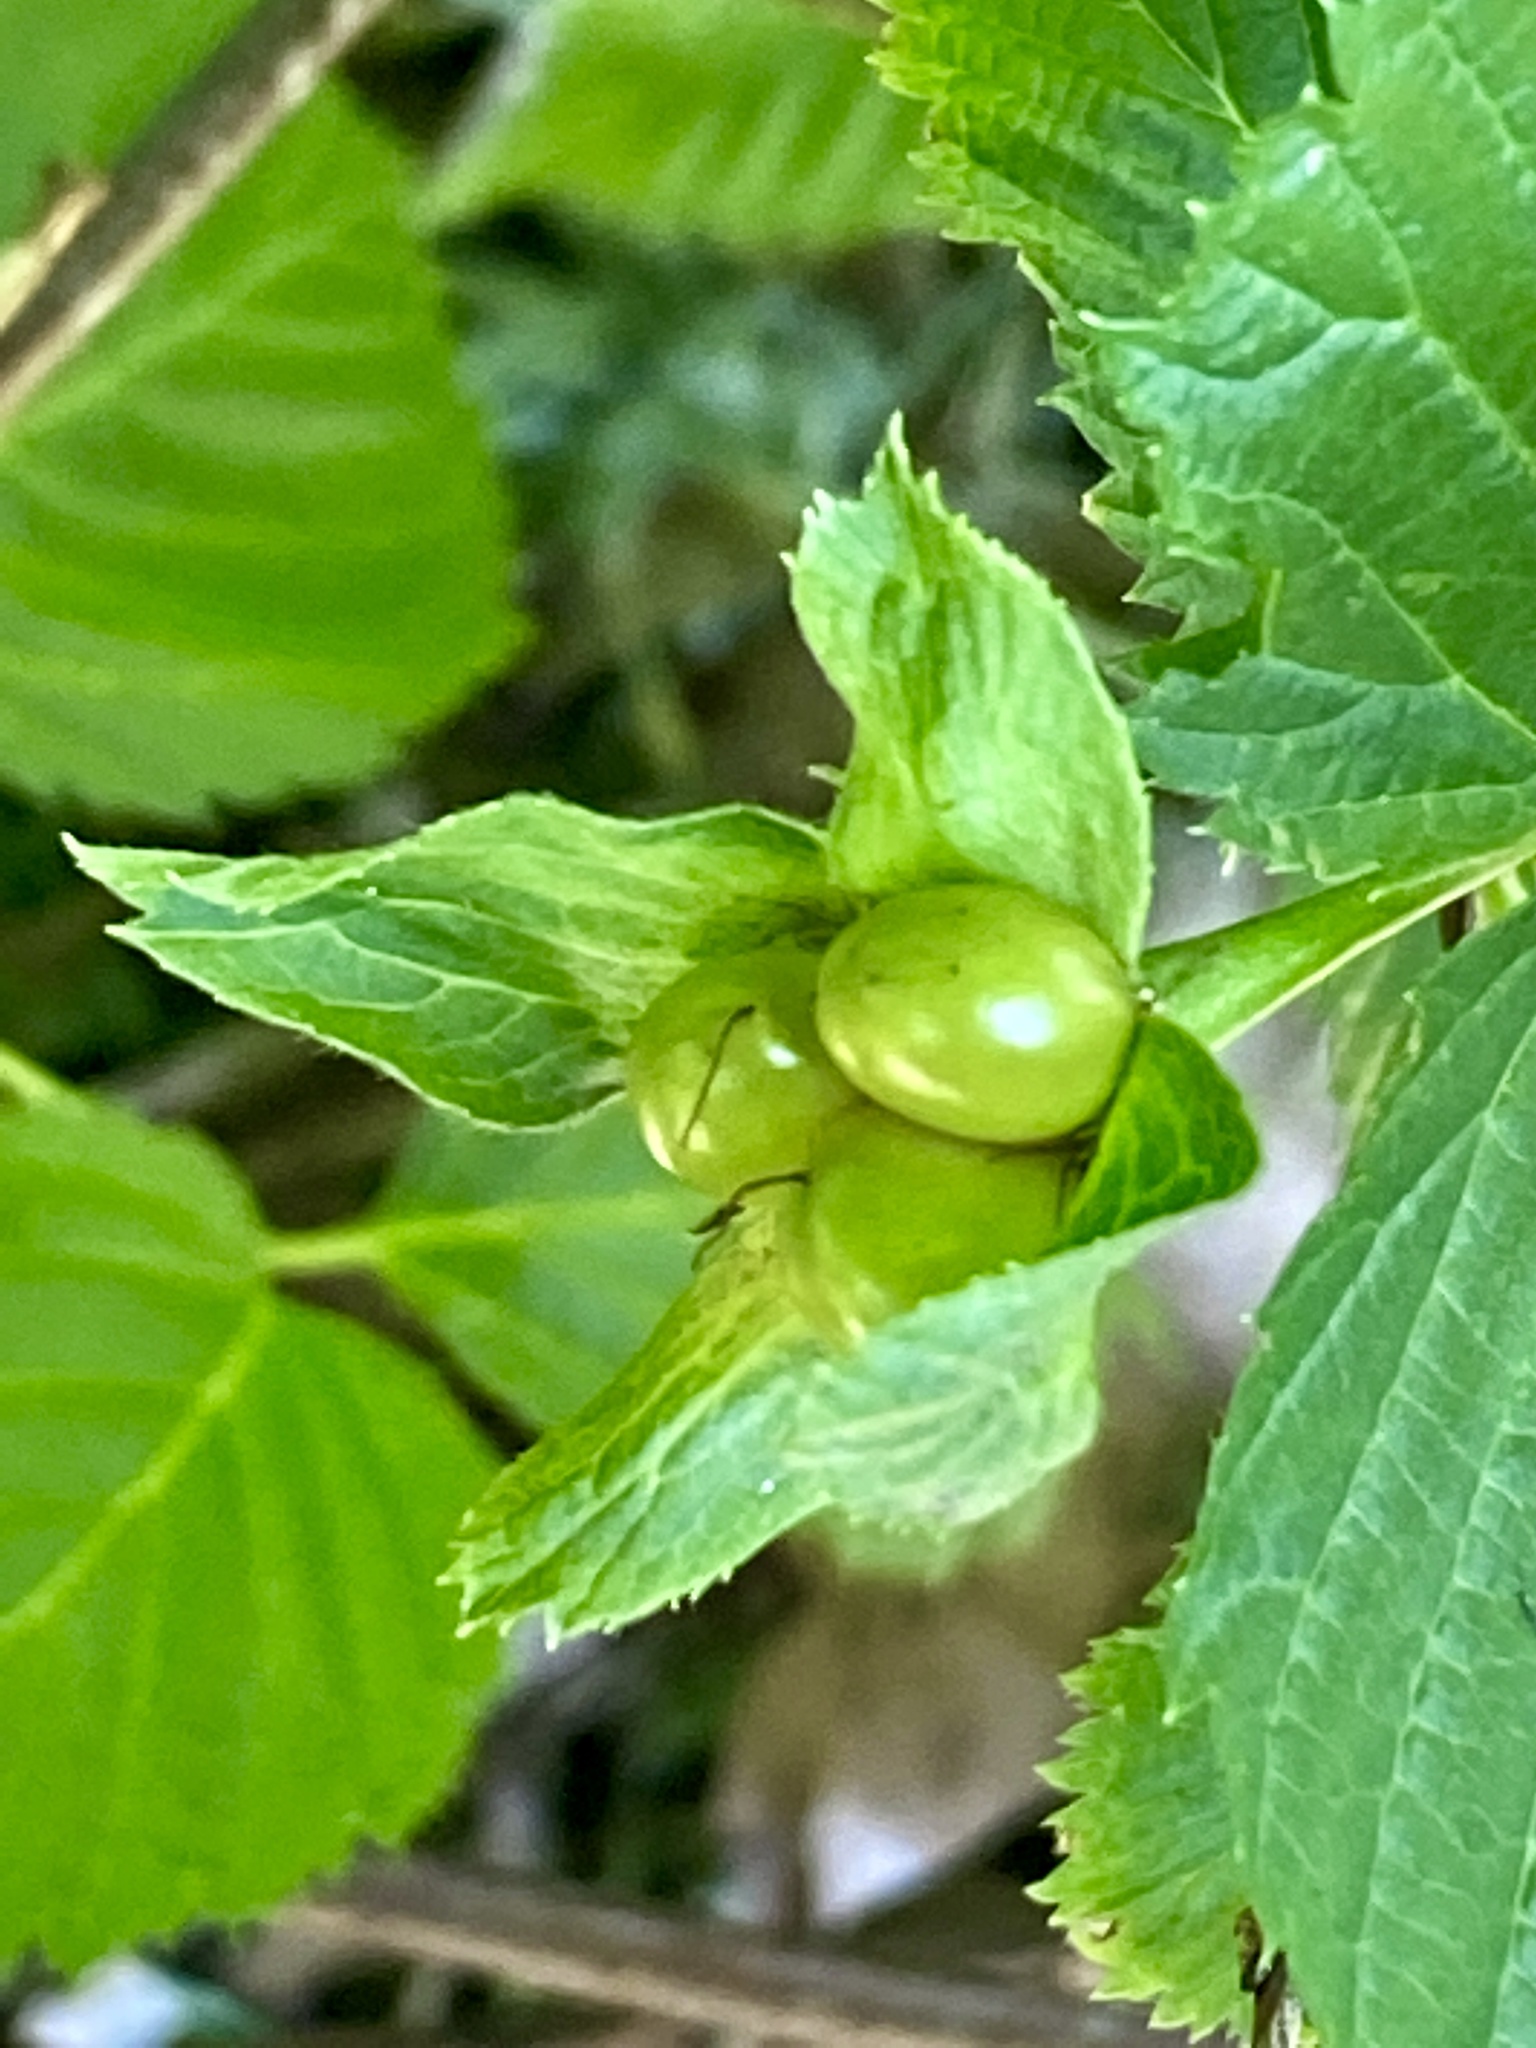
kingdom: Plantae
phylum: Tracheophyta
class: Magnoliopsida
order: Rosales
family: Rosaceae
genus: Rhodotypos
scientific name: Rhodotypos scandens
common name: Jetbead
